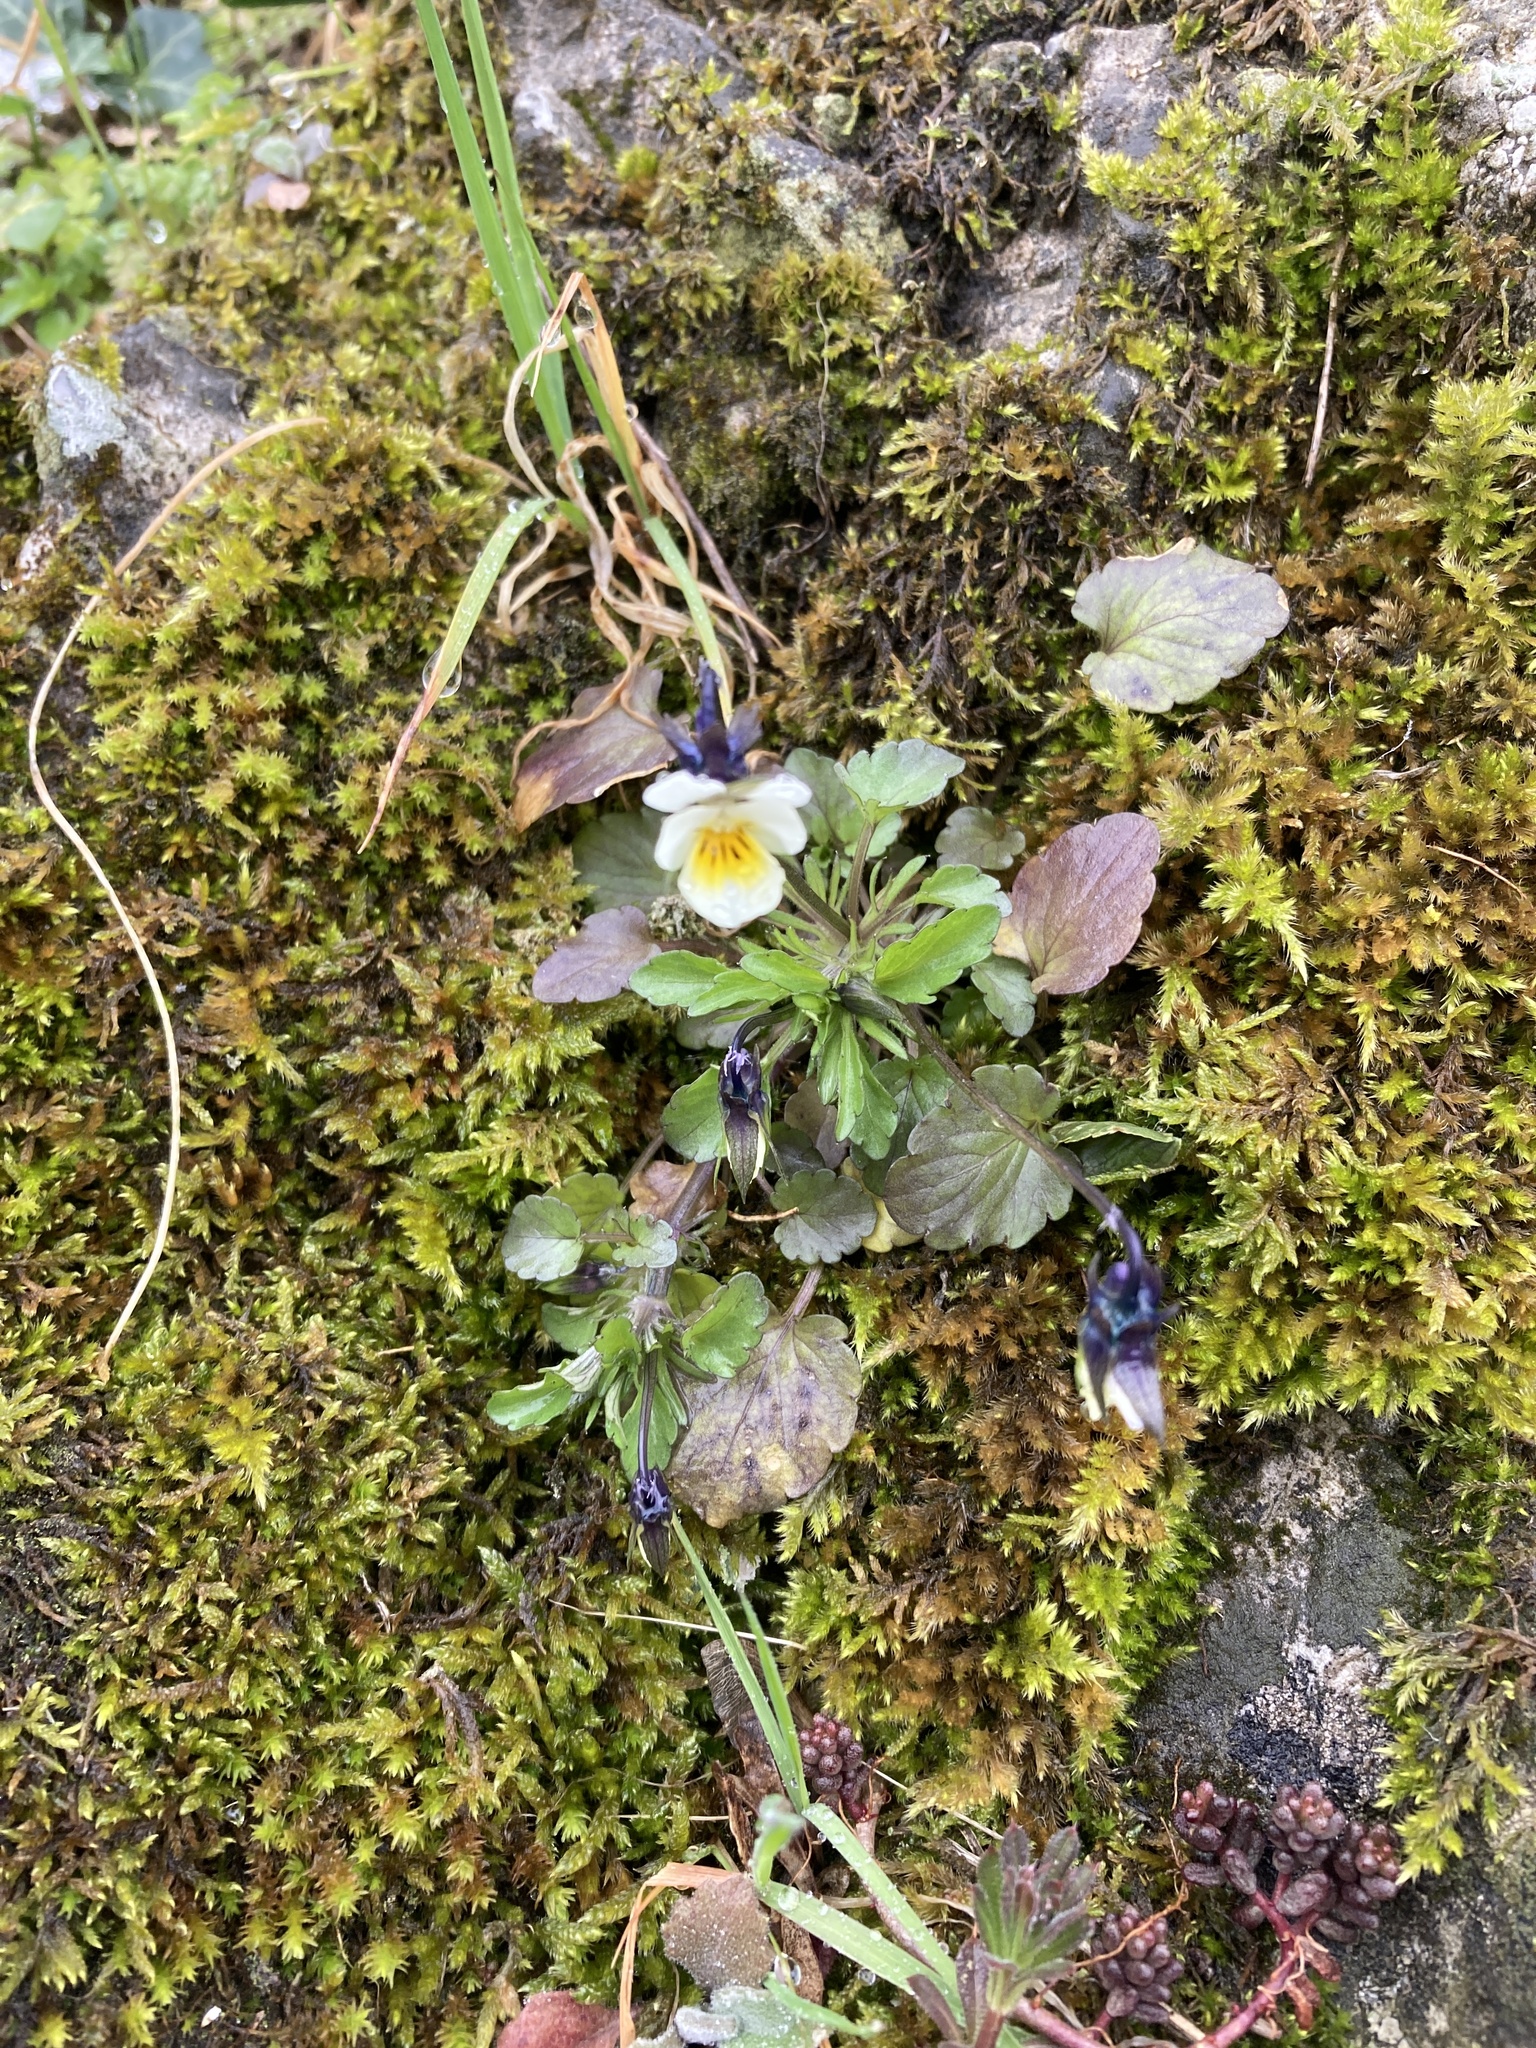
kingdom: Plantae
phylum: Tracheophyta
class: Magnoliopsida
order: Malpighiales
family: Violaceae
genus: Viola
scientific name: Viola arvensis
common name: Field pansy
